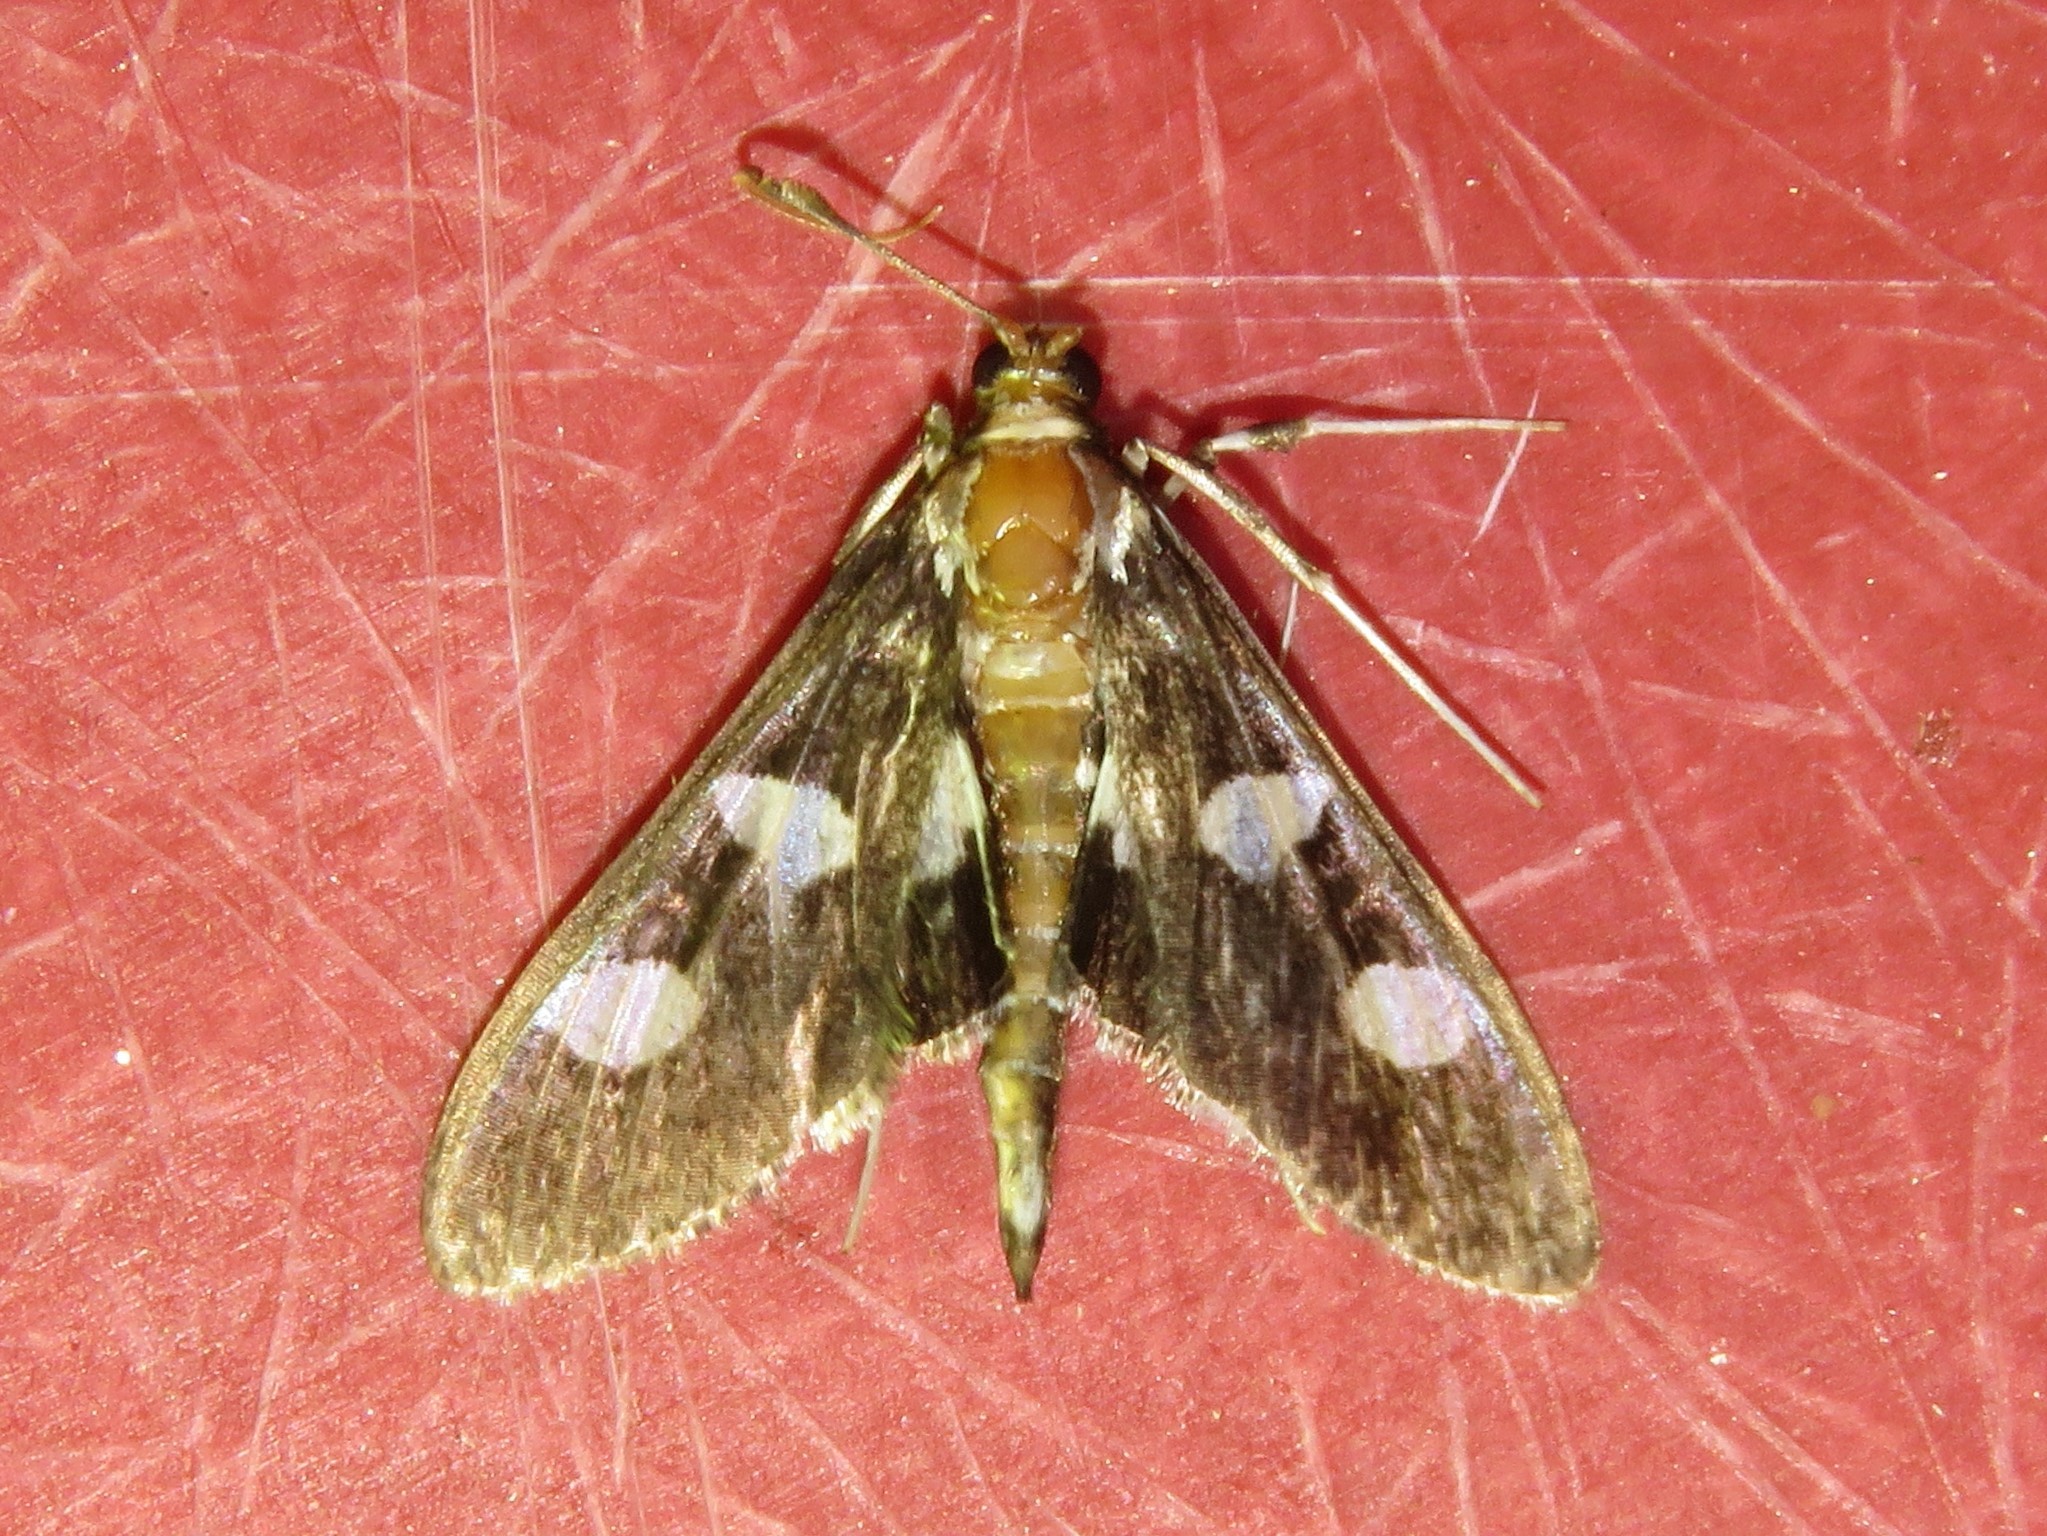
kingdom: Animalia
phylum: Arthropoda
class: Insecta
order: Lepidoptera
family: Crambidae
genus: Desmia
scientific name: Desmia funeralis
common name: Grape leaf folder moth
